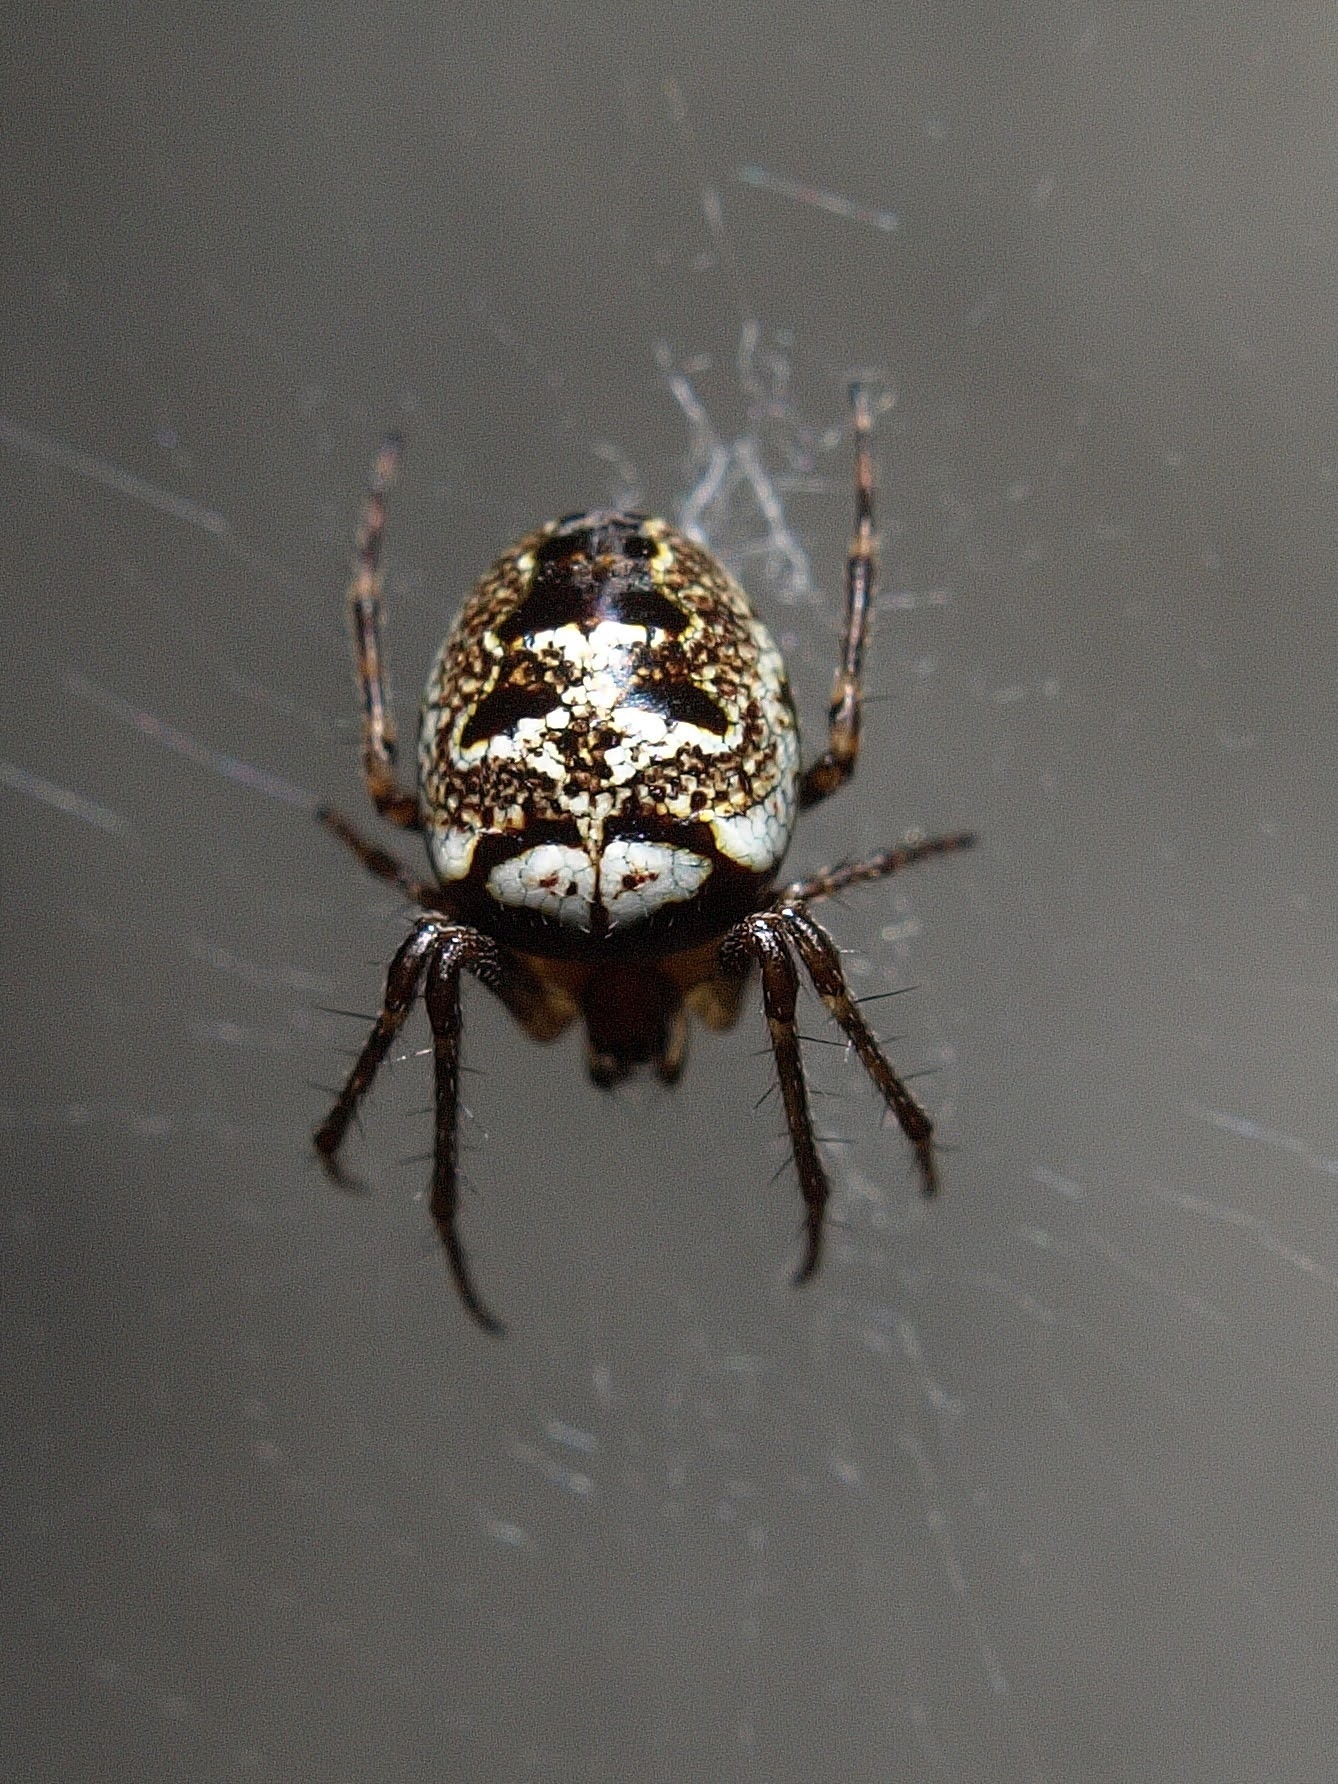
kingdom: Animalia
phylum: Arthropoda
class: Arachnida
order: Araneae
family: Araneidae
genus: Zilla
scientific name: Zilla diodia
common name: Zilla diodia
